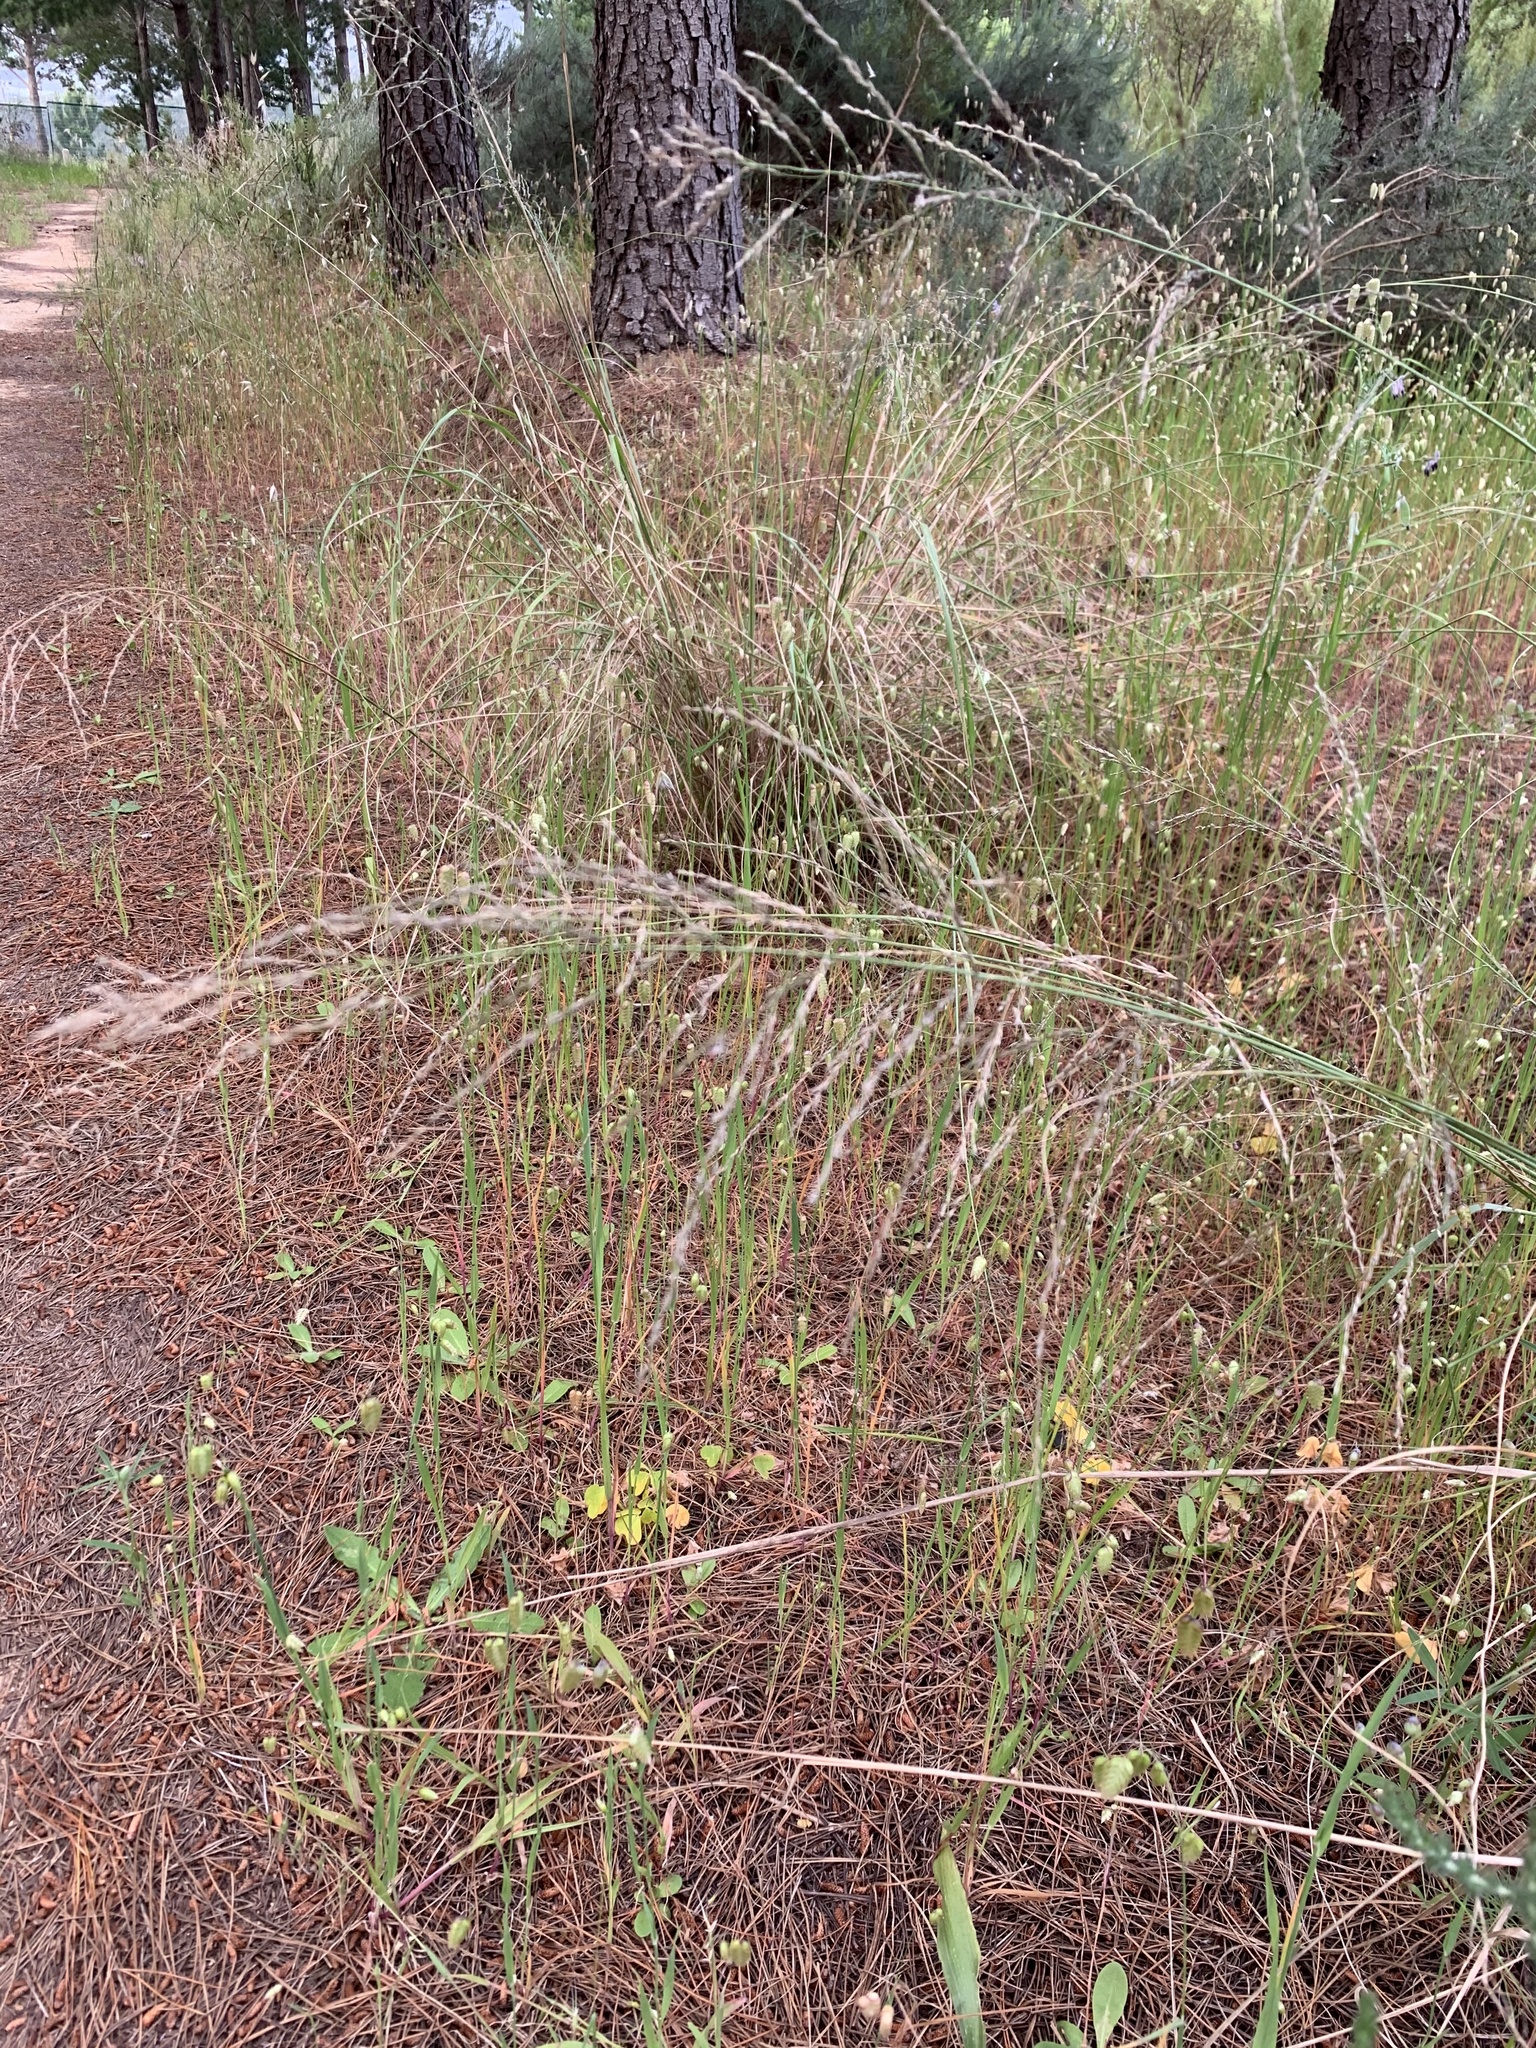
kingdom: Plantae
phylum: Tracheophyta
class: Liliopsida
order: Poales
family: Poaceae
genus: Eragrostis
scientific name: Eragrostis curvula
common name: African love-grass
